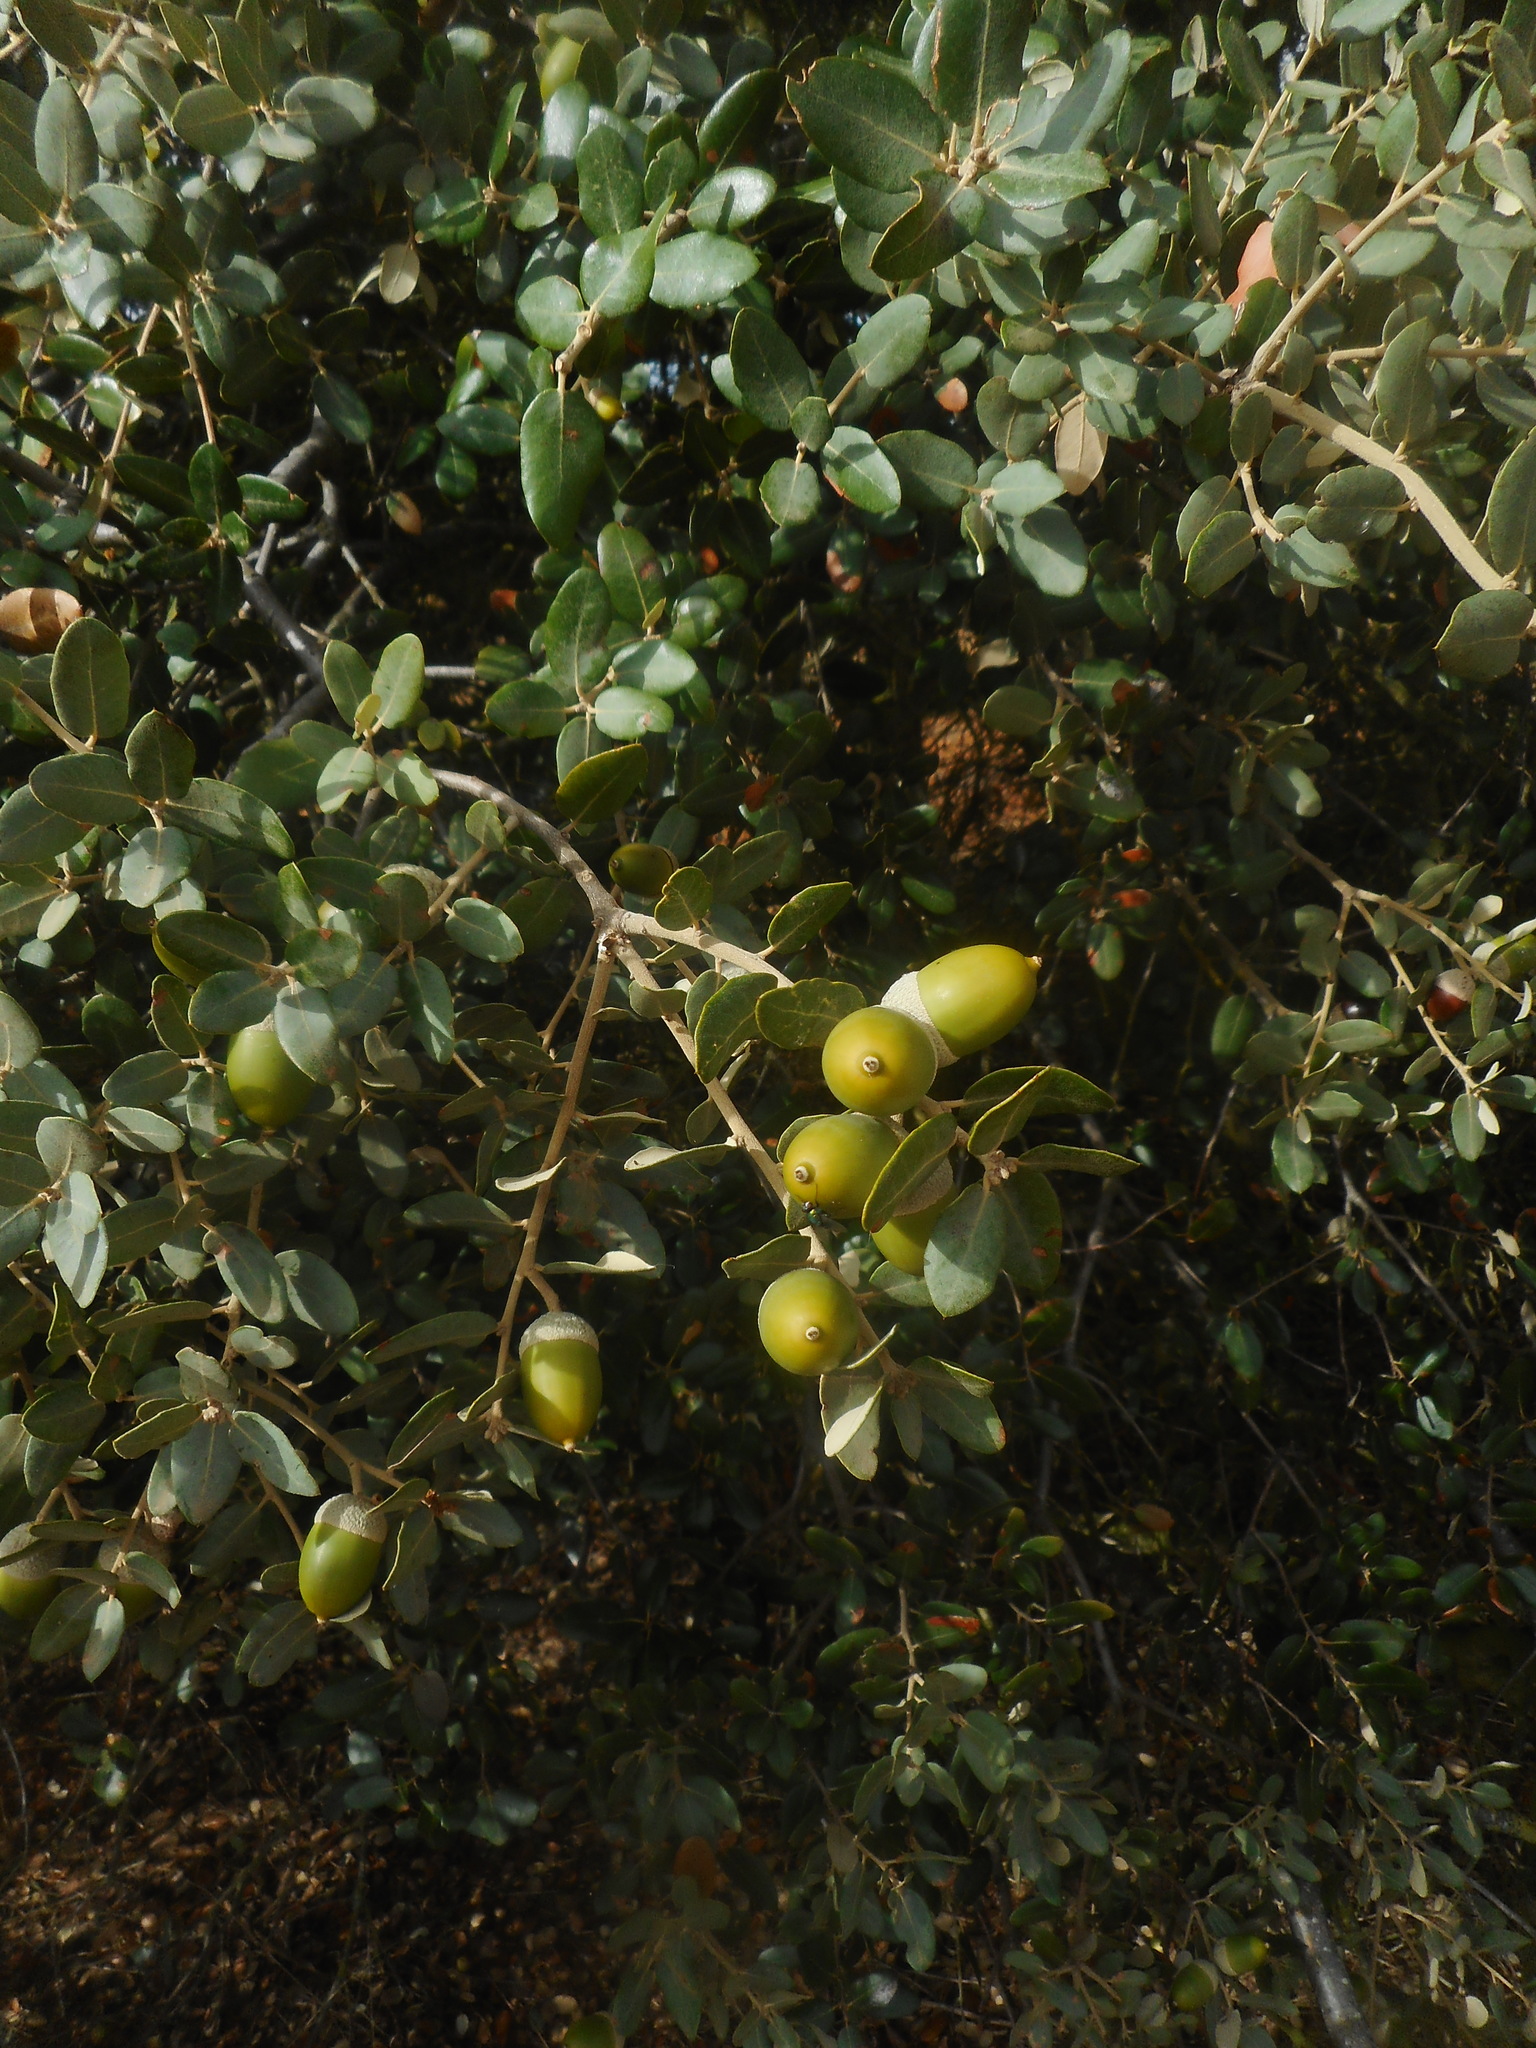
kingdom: Plantae
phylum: Tracheophyta
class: Magnoliopsida
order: Fagales
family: Fagaceae
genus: Quercus
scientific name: Quercus rotundifolia
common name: Holm oak
